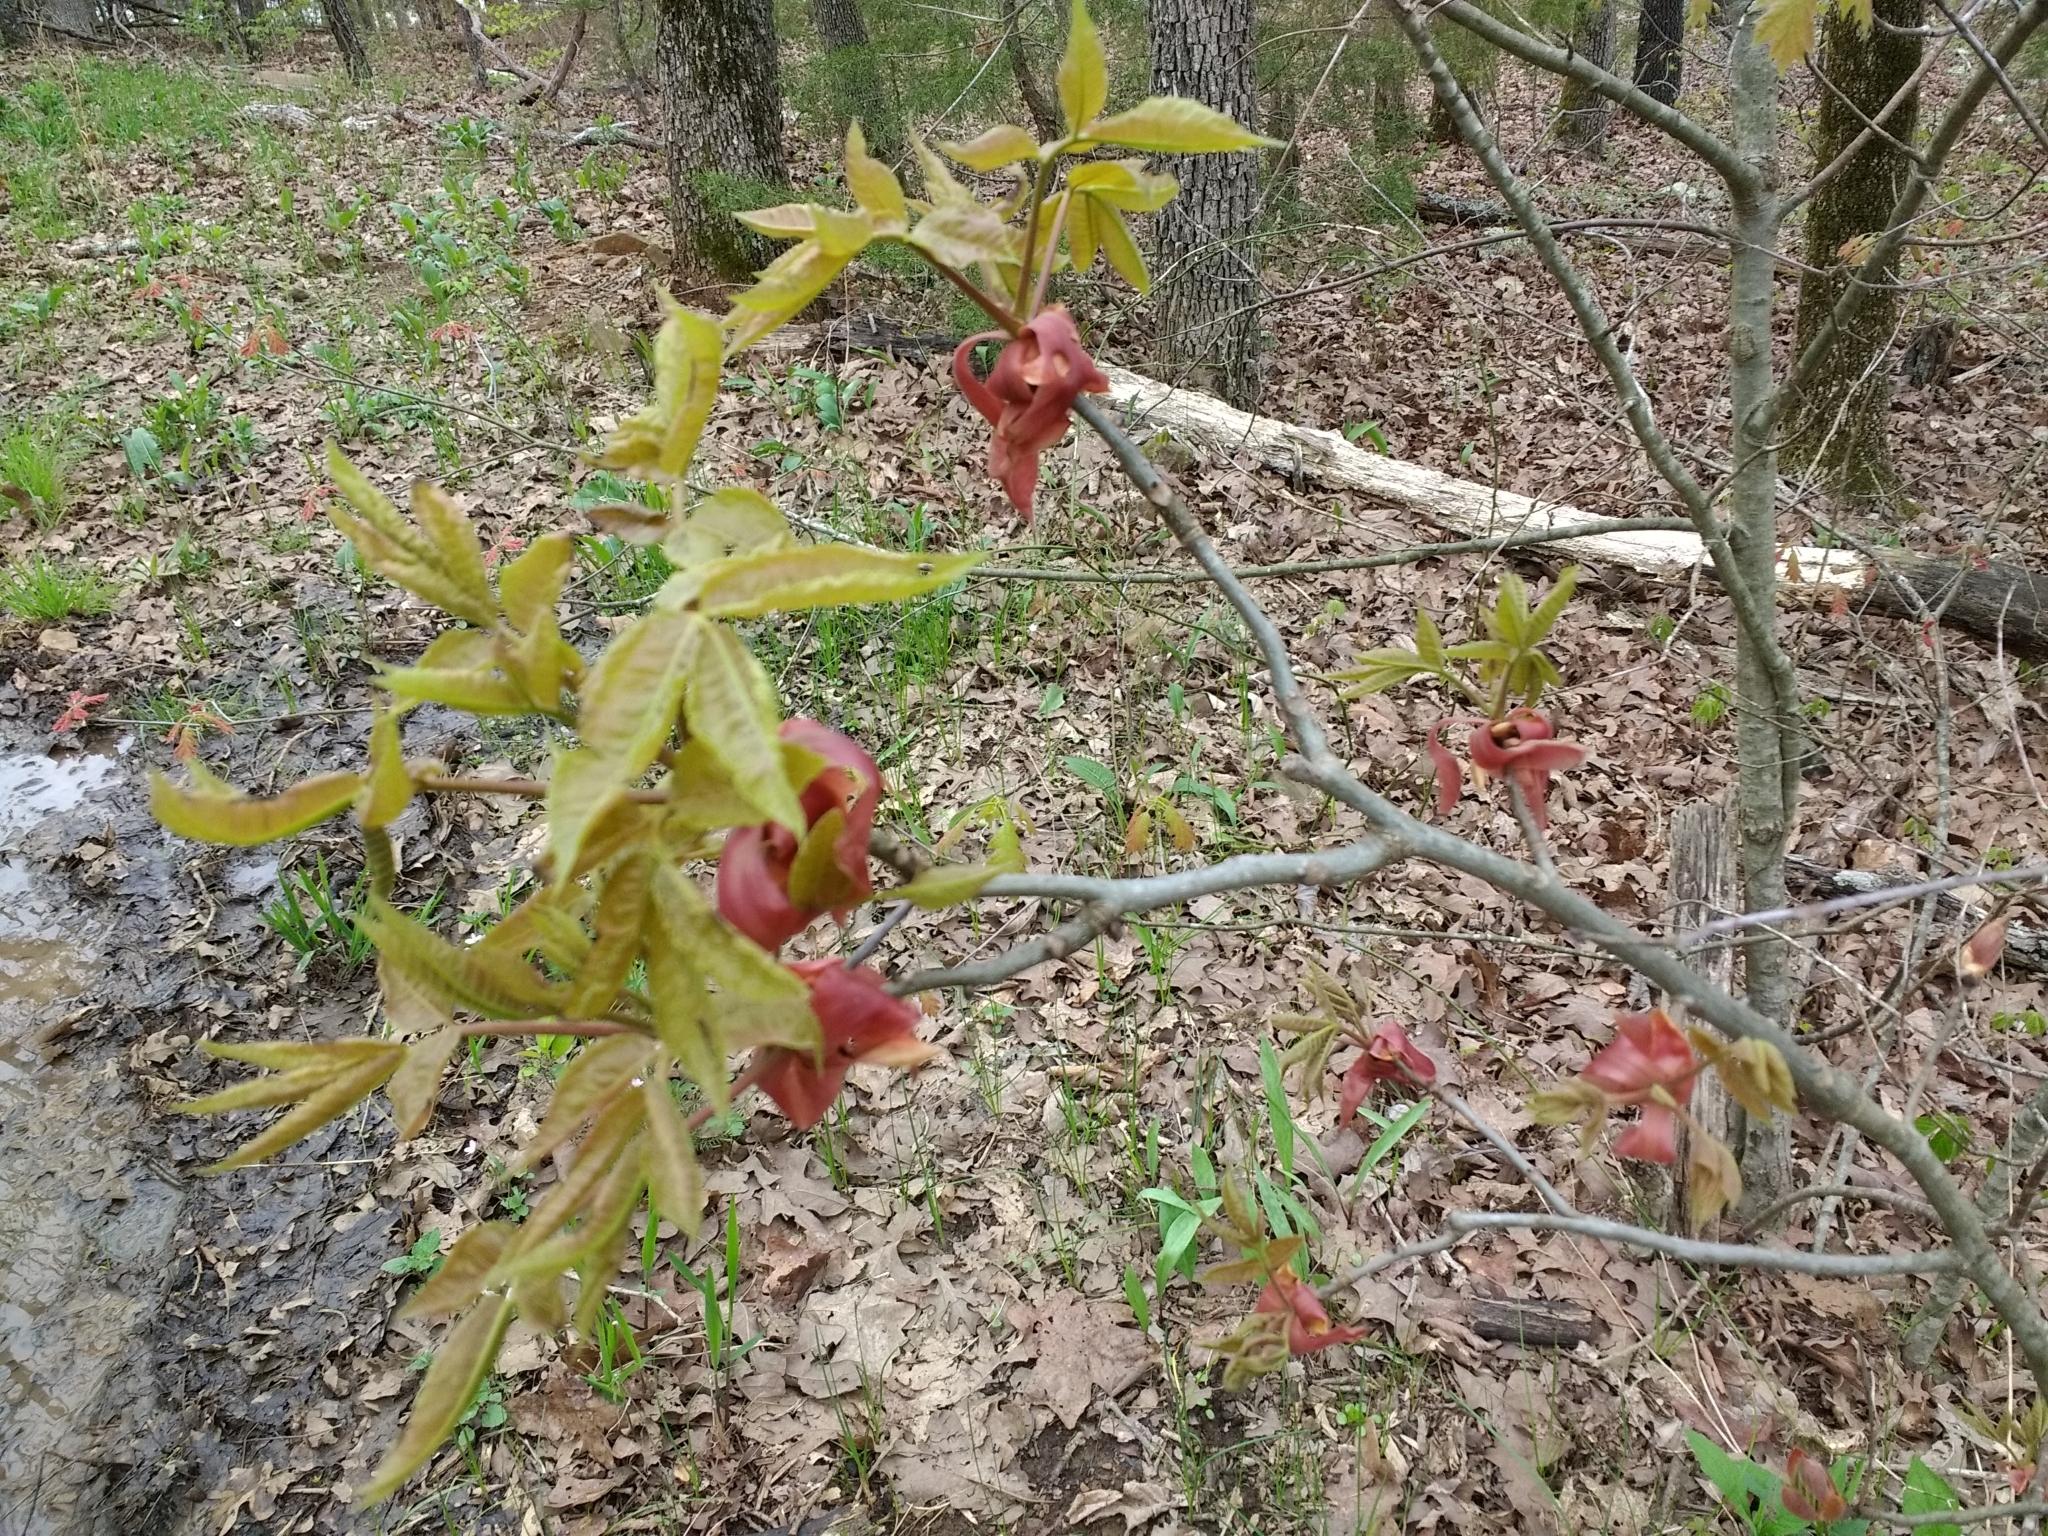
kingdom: Plantae
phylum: Tracheophyta
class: Magnoliopsida
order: Fagales
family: Juglandaceae
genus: Carya
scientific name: Carya alba
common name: Mockernut hickory
